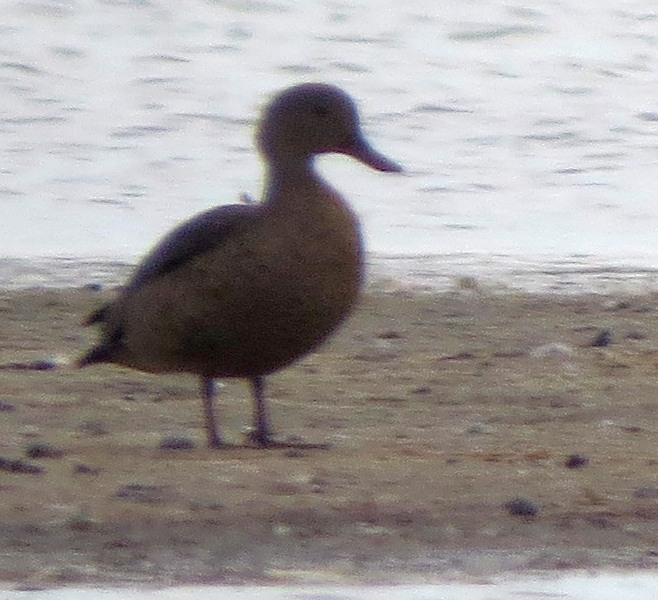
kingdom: Animalia
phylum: Chordata
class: Aves
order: Anseriformes
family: Anatidae
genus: Anas
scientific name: Anas bernieri
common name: Bernier's teal
